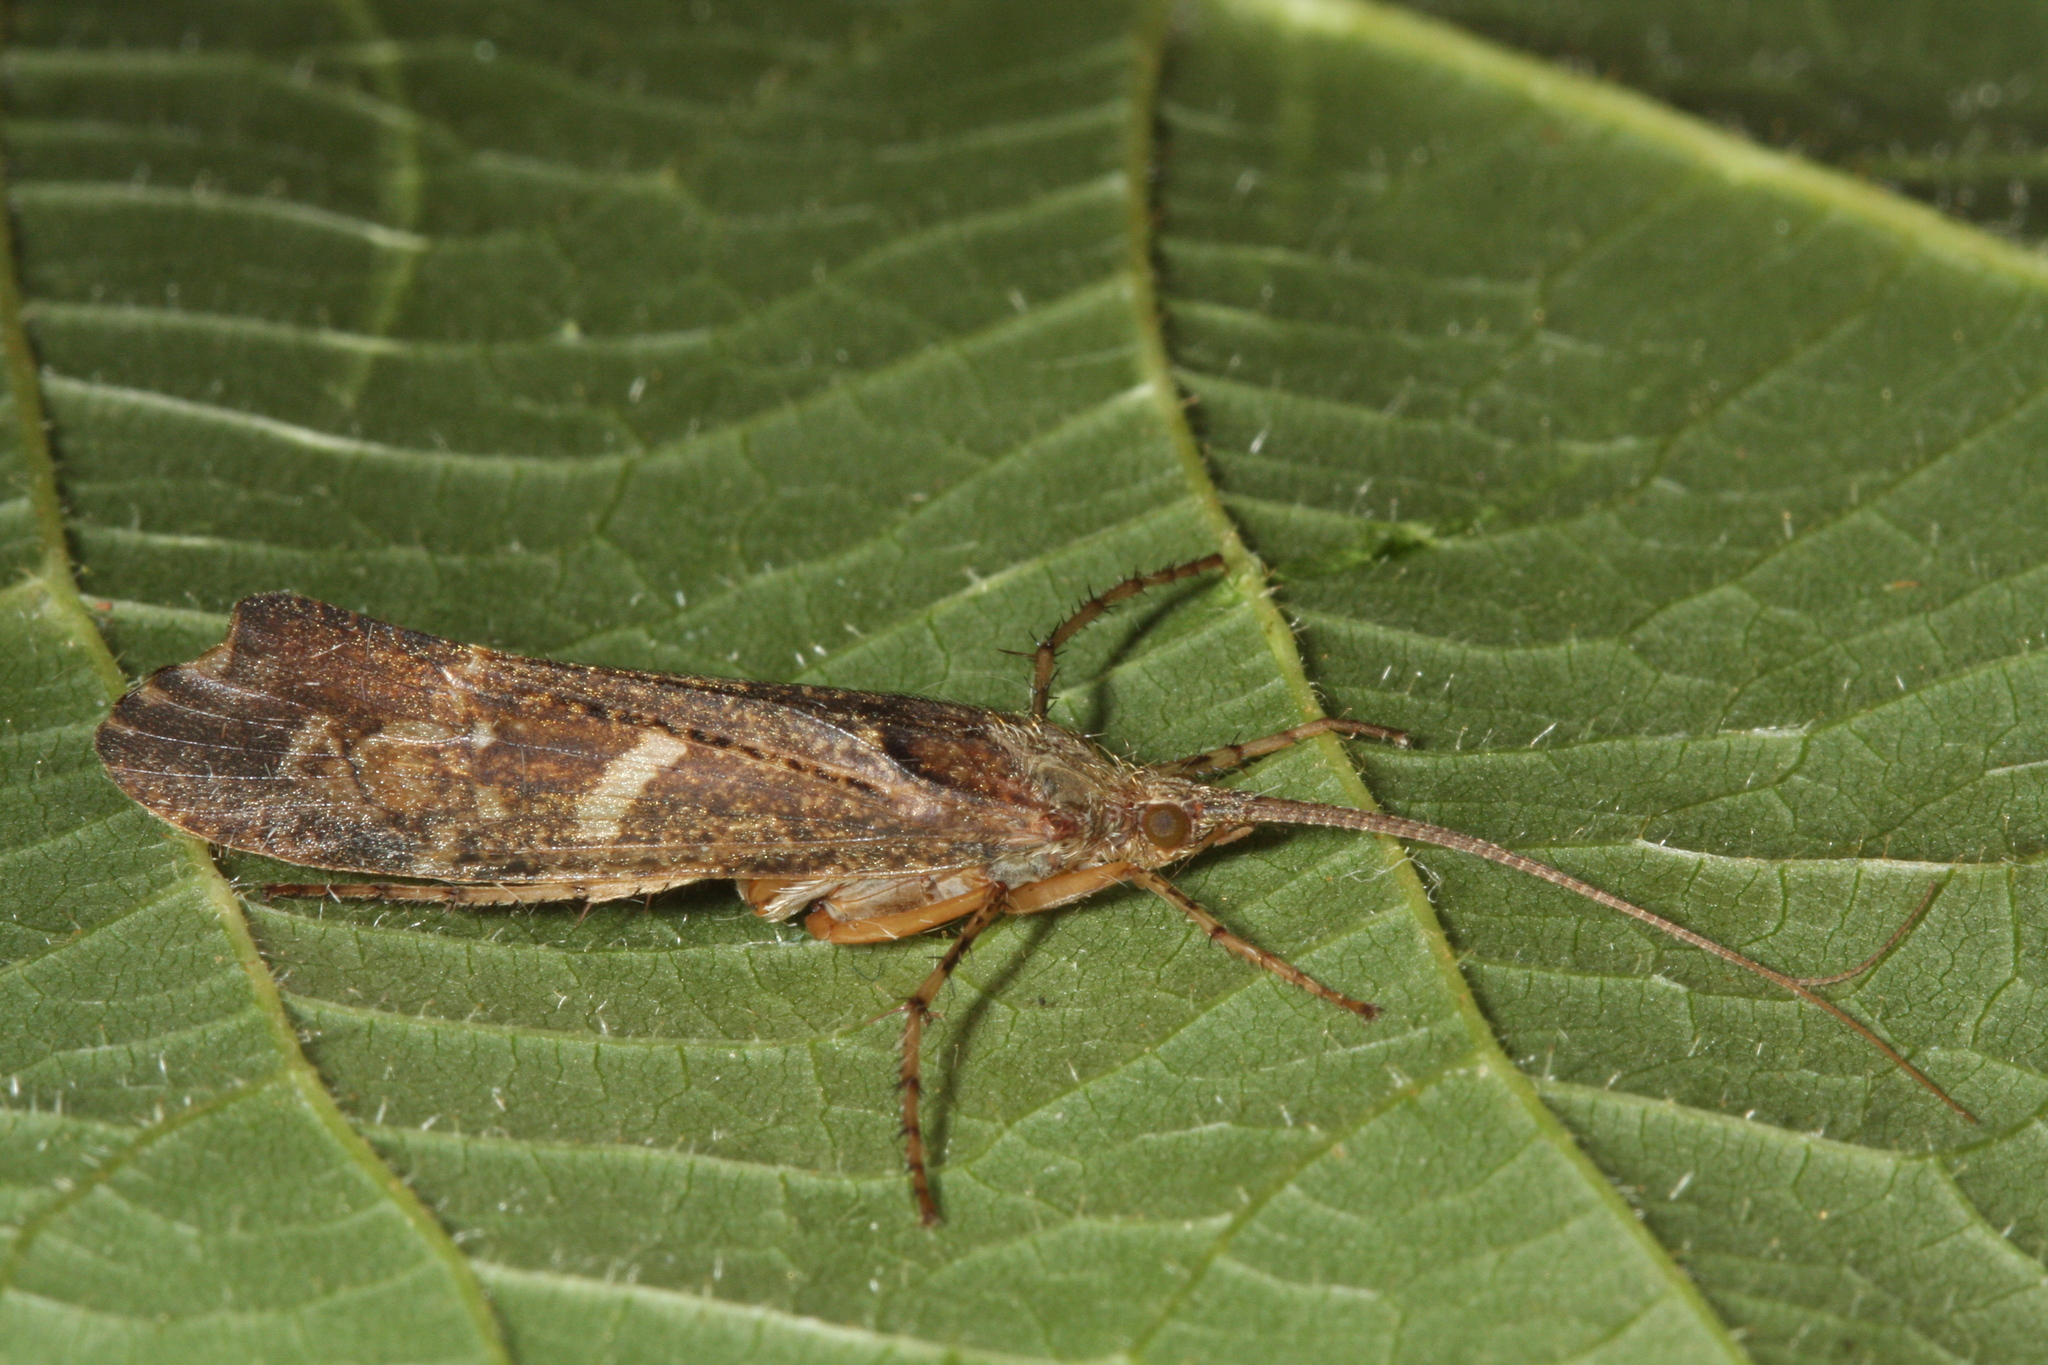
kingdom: Animalia
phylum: Arthropoda
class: Insecta
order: Trichoptera
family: Limnephilidae
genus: Glyphotaelius
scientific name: Glyphotaelius pellucidus
